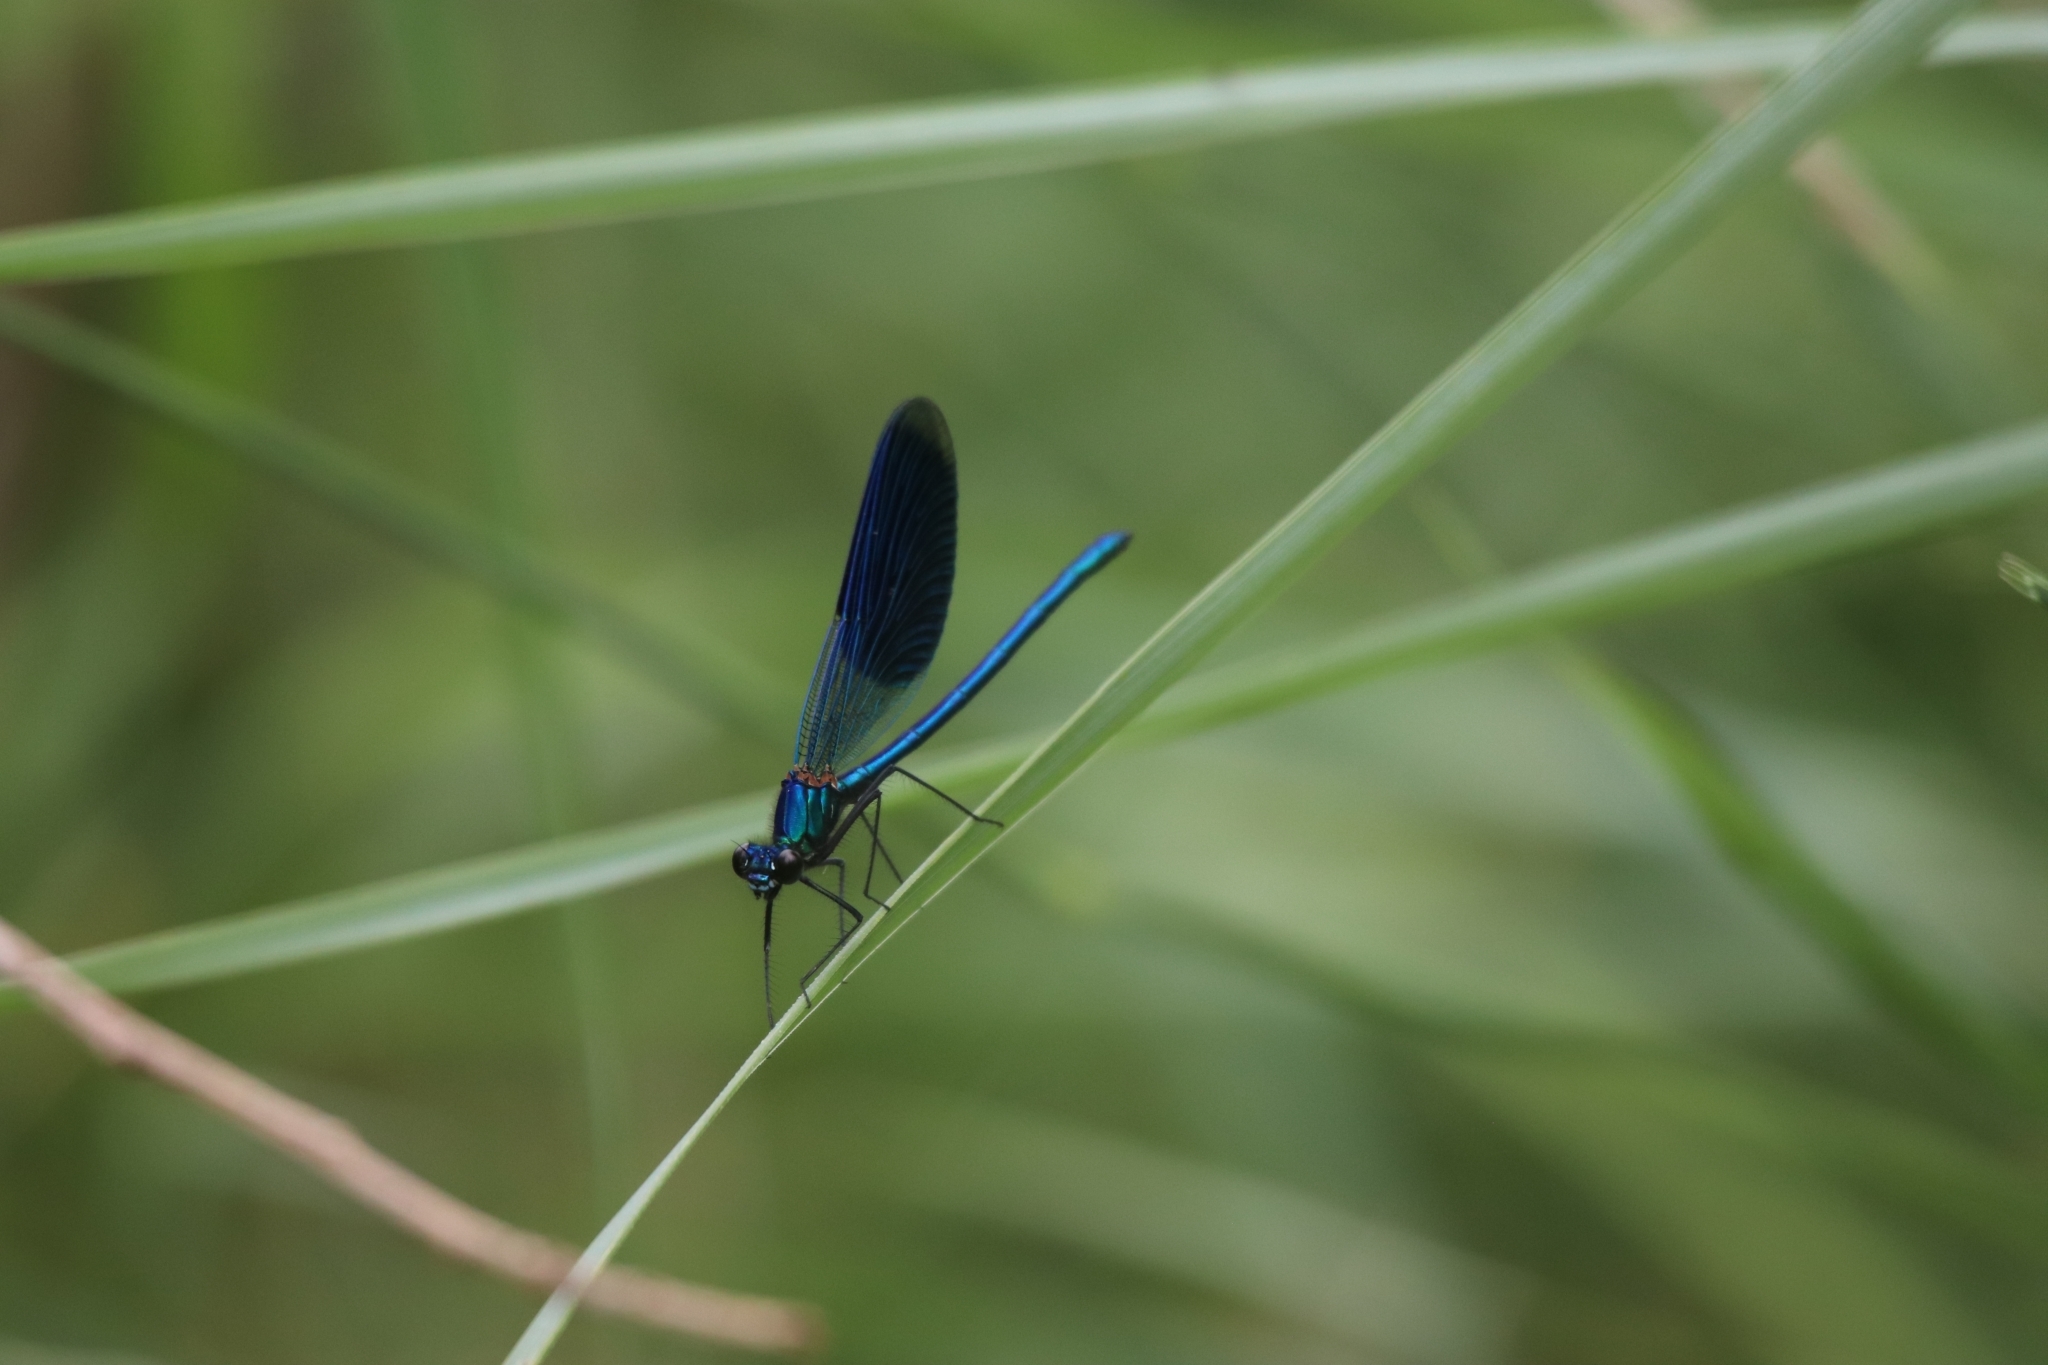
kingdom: Animalia
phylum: Arthropoda
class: Insecta
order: Odonata
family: Calopterygidae
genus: Calopteryx
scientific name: Calopteryx splendens
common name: Banded demoiselle
